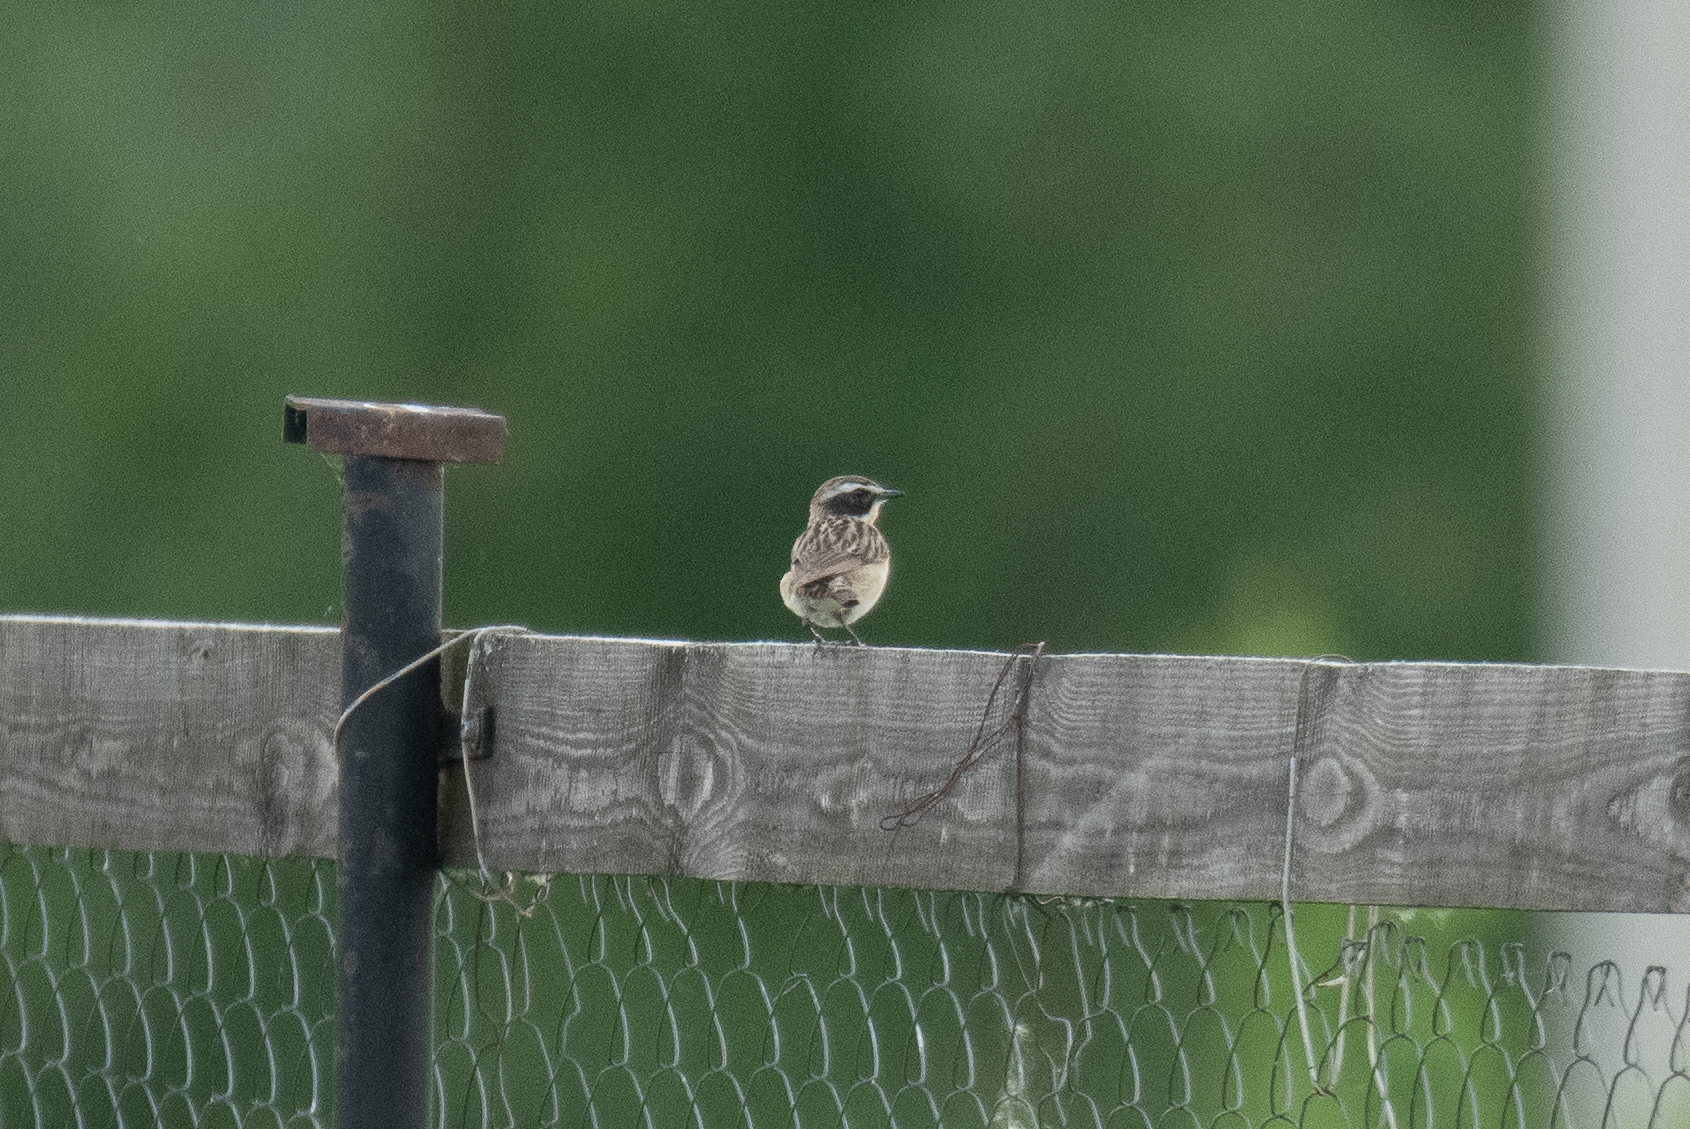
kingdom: Animalia
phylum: Chordata
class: Aves
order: Passeriformes
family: Muscicapidae
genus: Saxicola
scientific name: Saxicola rubetra
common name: Whinchat
